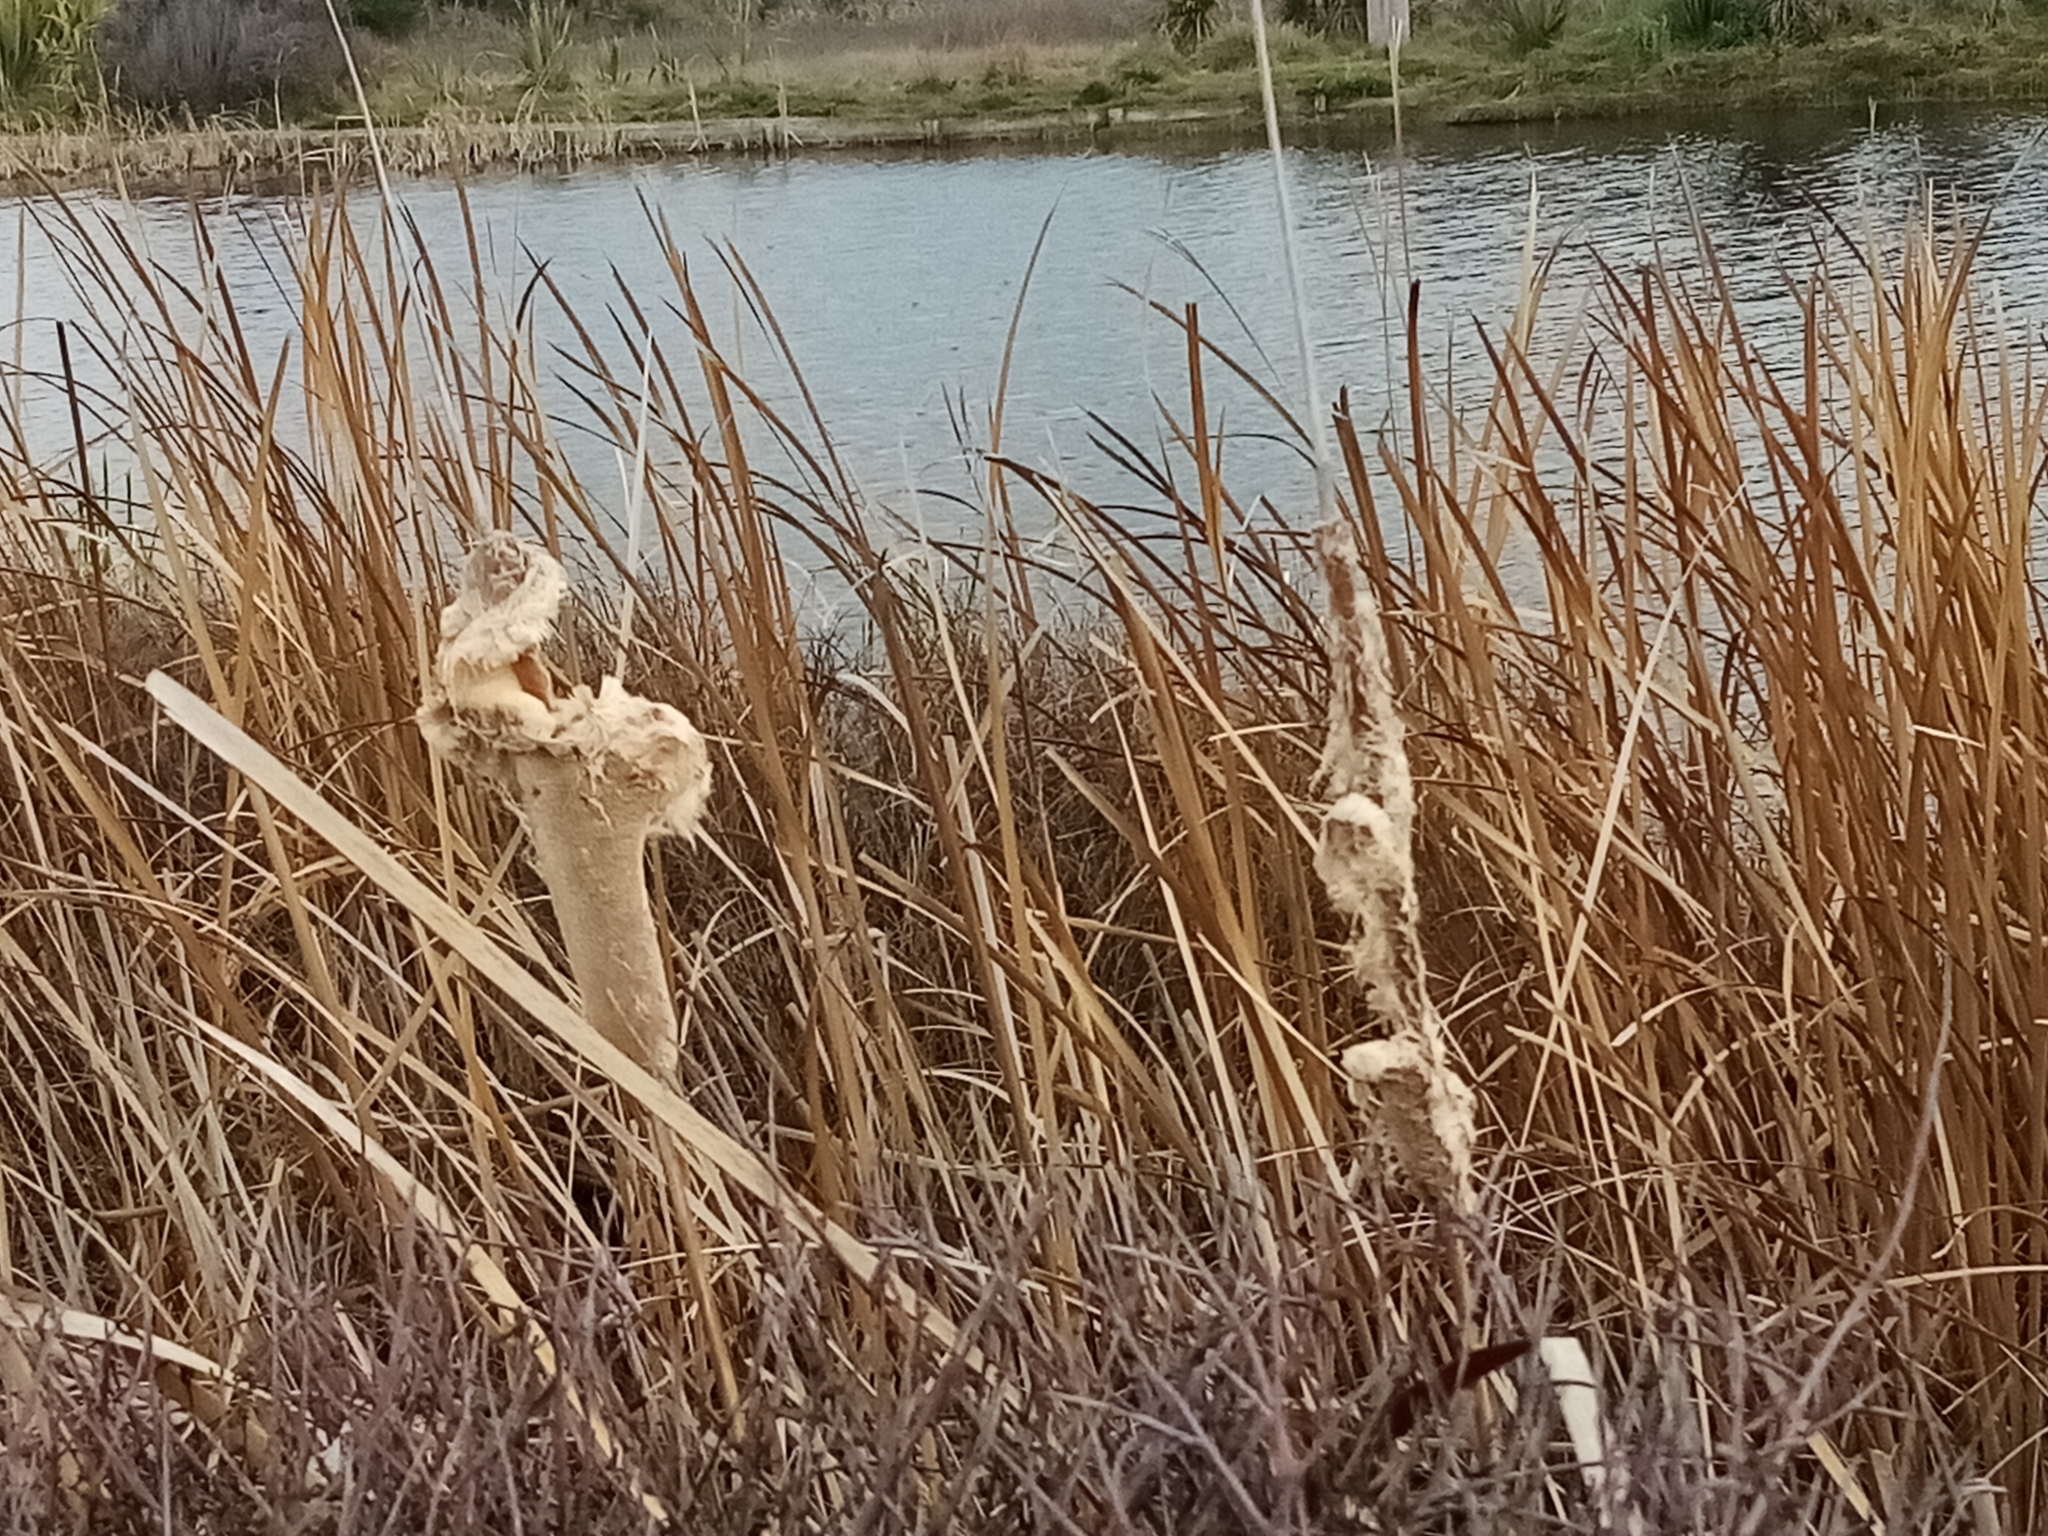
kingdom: Plantae
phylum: Tracheophyta
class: Liliopsida
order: Poales
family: Typhaceae
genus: Typha
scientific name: Typha orientalis
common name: Bullrush
